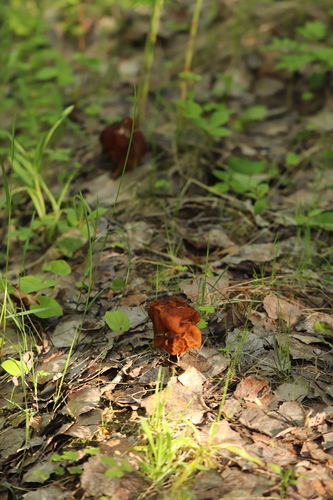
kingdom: Fungi
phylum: Ascomycota
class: Pezizomycetes
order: Pezizales
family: Discinaceae
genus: Gyromitra
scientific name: Gyromitra esculenta
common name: False morel
